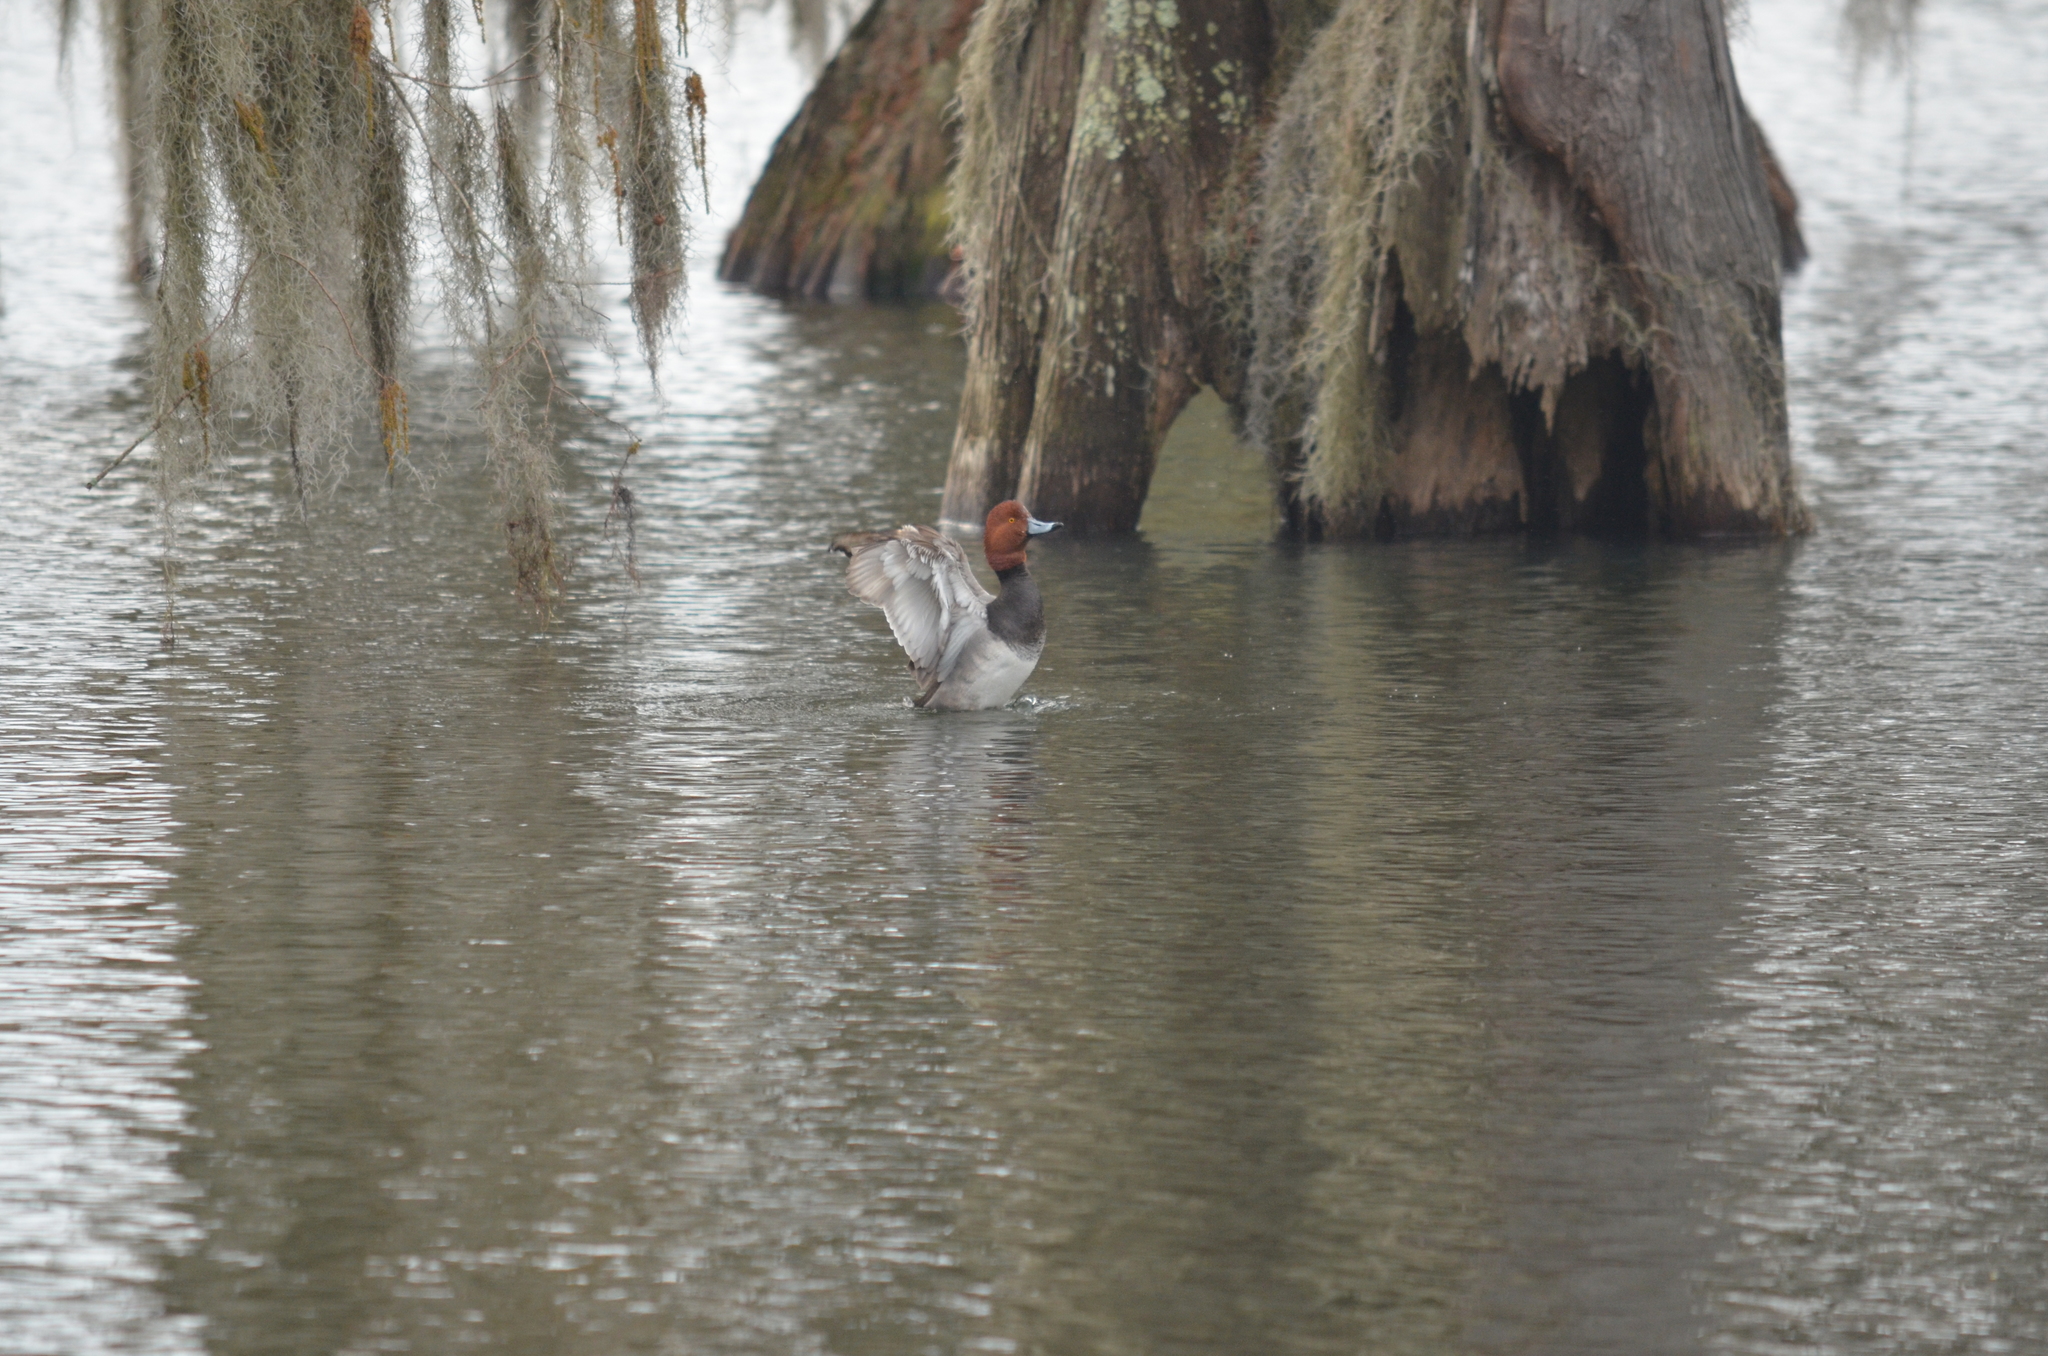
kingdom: Animalia
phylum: Chordata
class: Aves
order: Anseriformes
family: Anatidae
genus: Aythya
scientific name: Aythya americana
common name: Redhead
